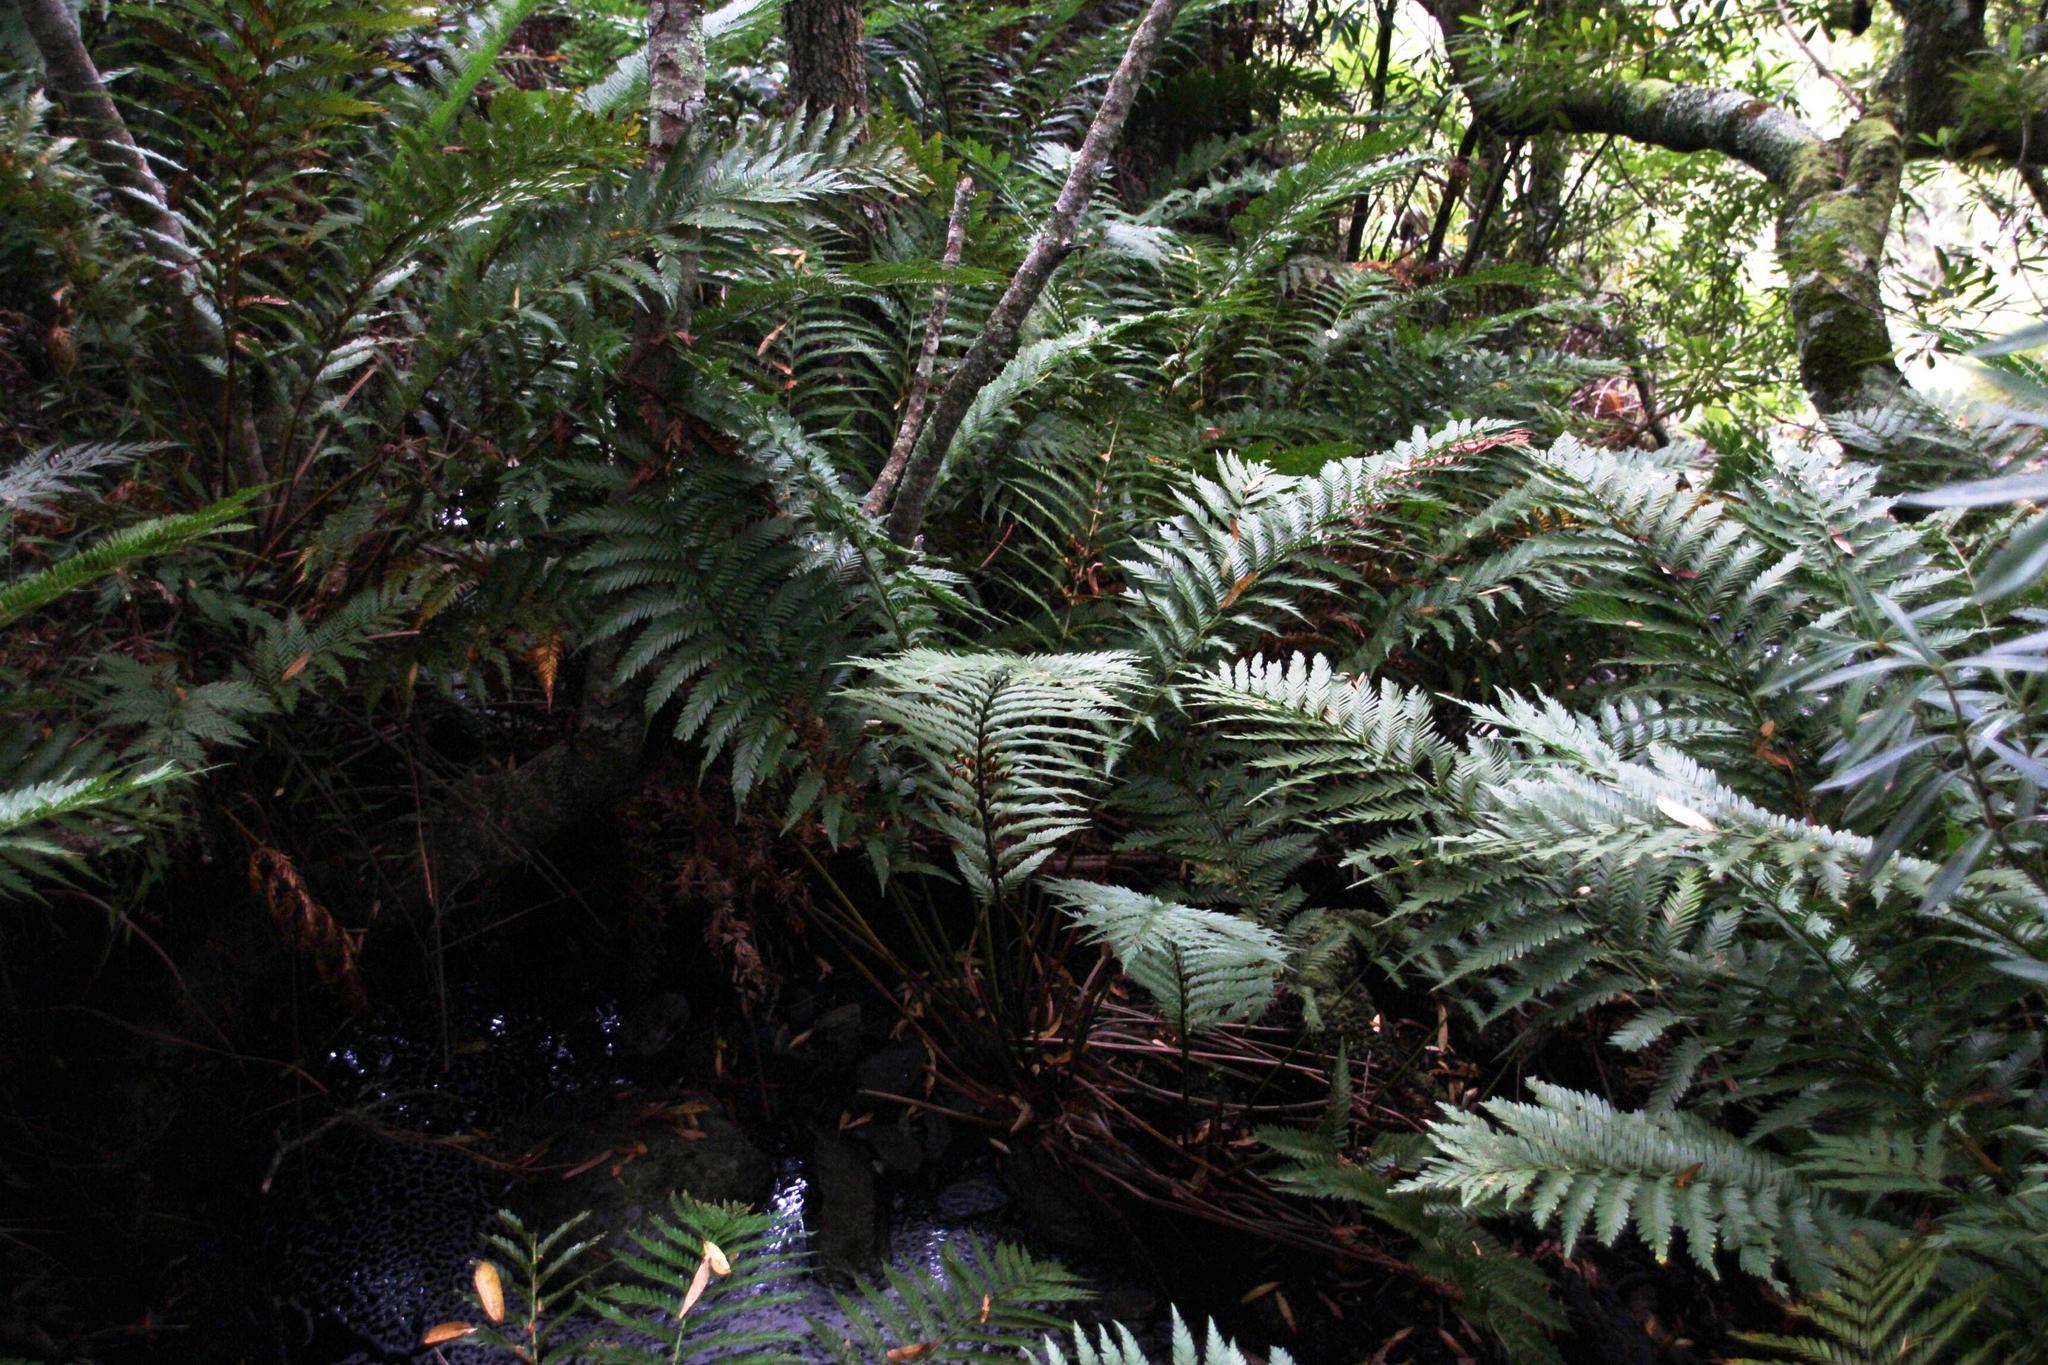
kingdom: Plantae
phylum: Tracheophyta
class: Polypodiopsida
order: Osmundales
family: Osmundaceae
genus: Todea
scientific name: Todea barbara
